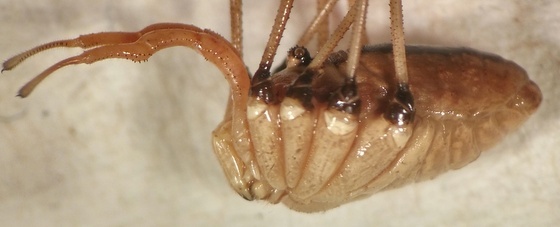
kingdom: Animalia
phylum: Arthropoda
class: Arachnida
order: Opiliones
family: Sclerosomatidae
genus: Leiobunum
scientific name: Leiobunum vittatum
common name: Eastern harvestman
